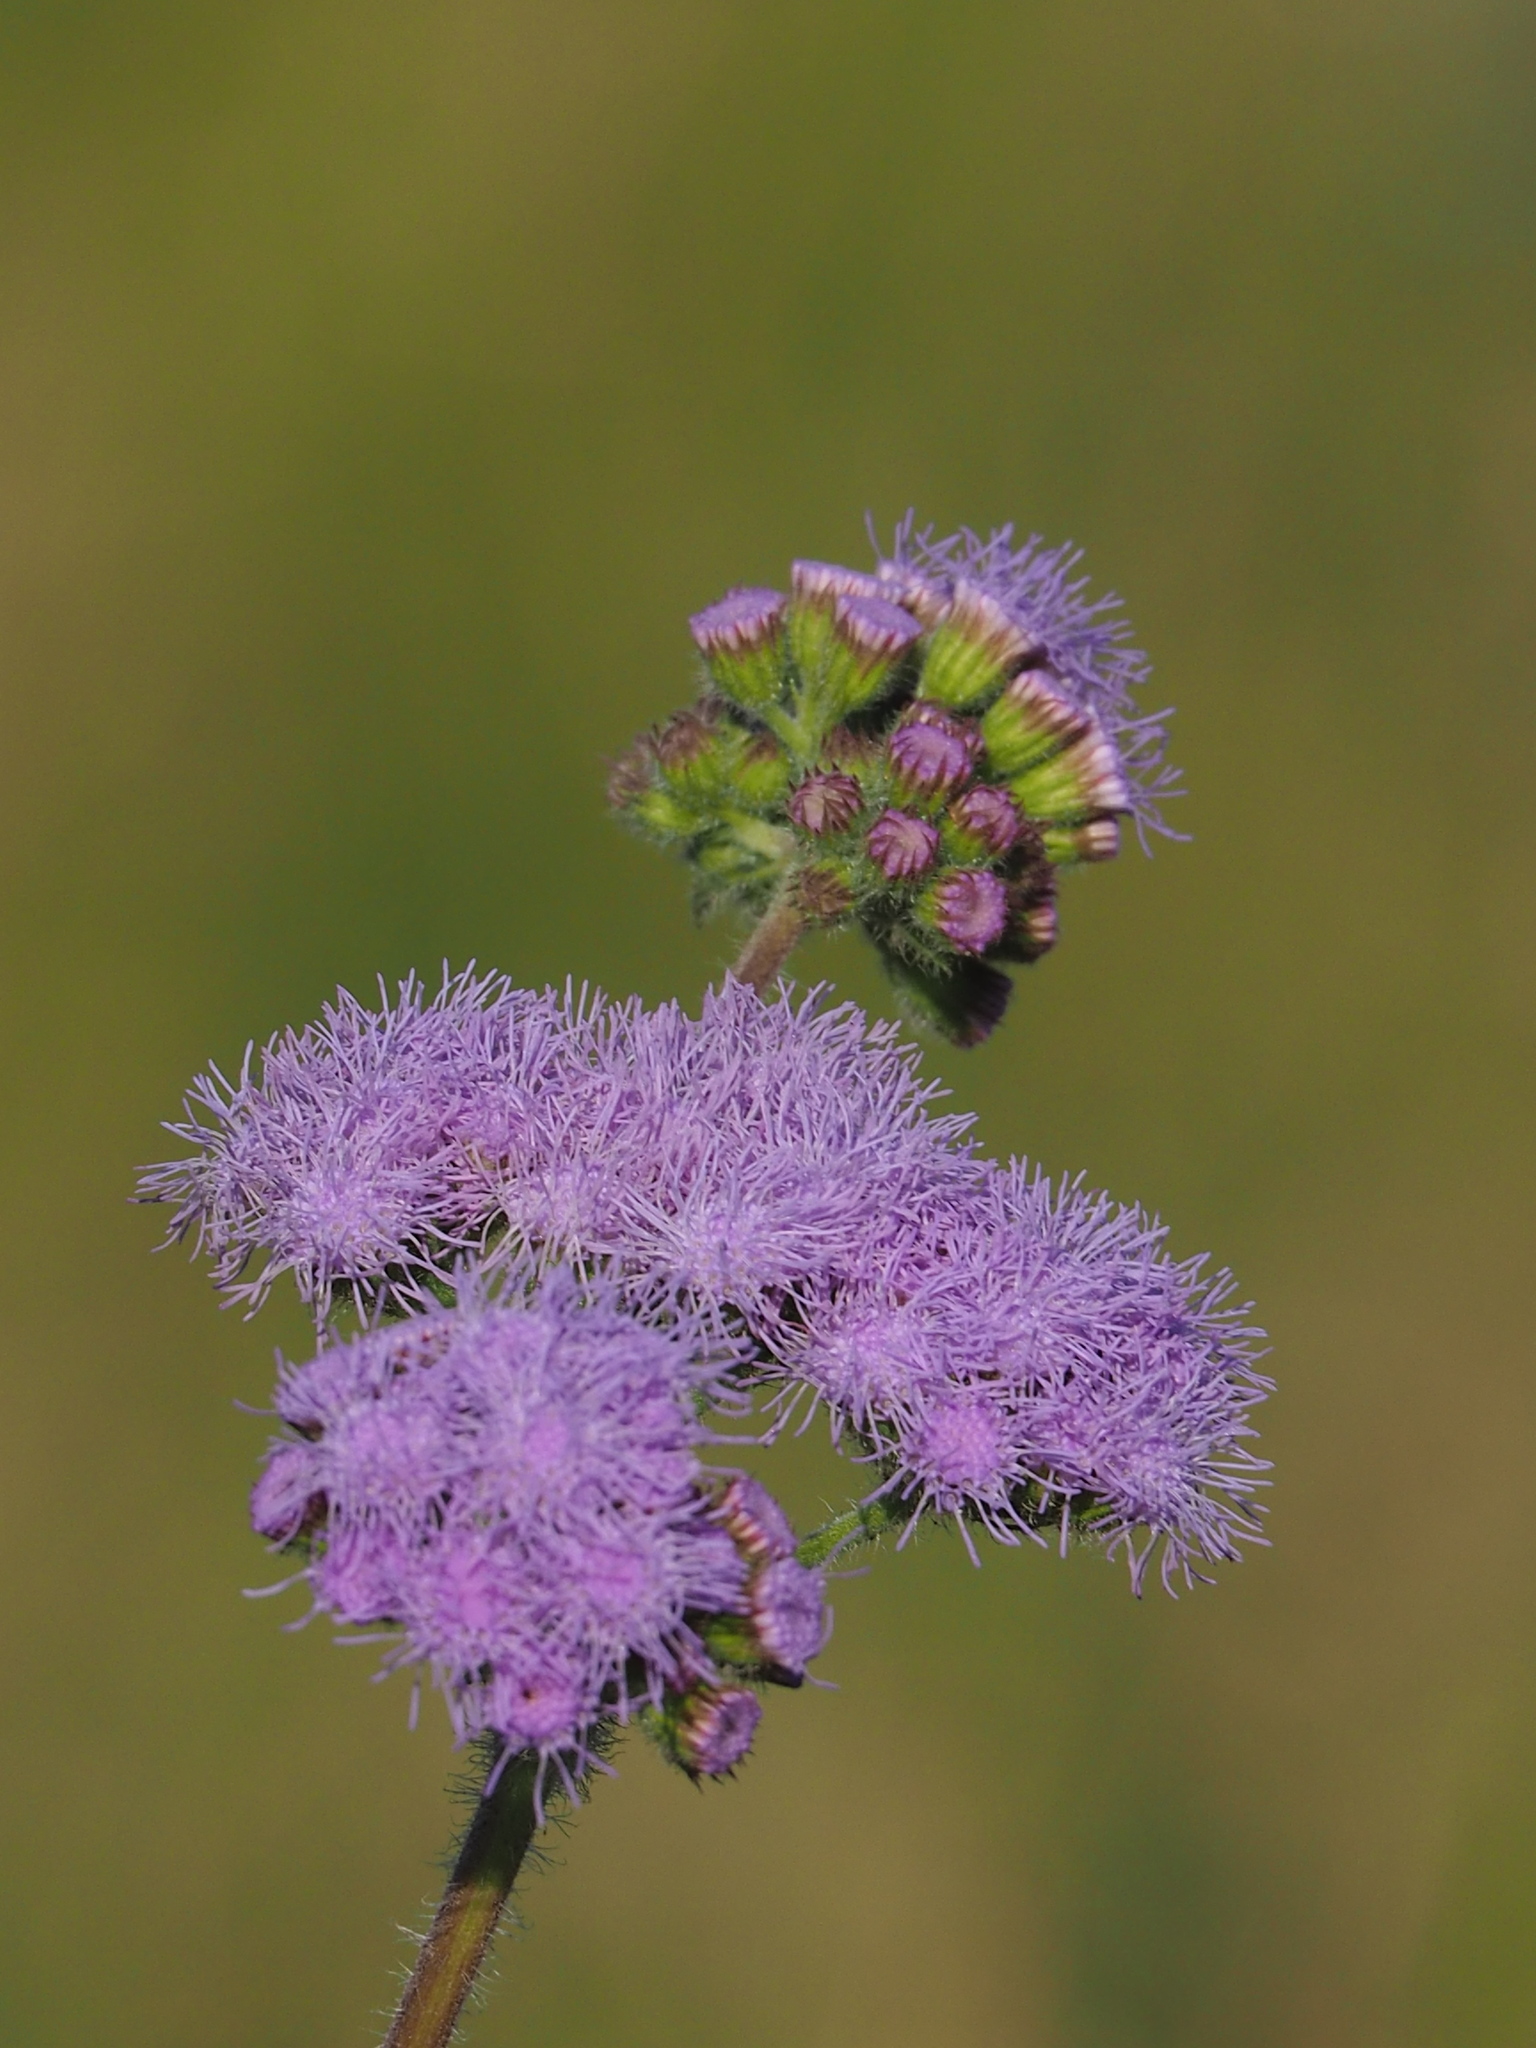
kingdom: Plantae
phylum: Tracheophyta
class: Magnoliopsida
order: Asterales
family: Asteraceae
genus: Ageratum
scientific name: Ageratum houstonianum
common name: Bluemink
